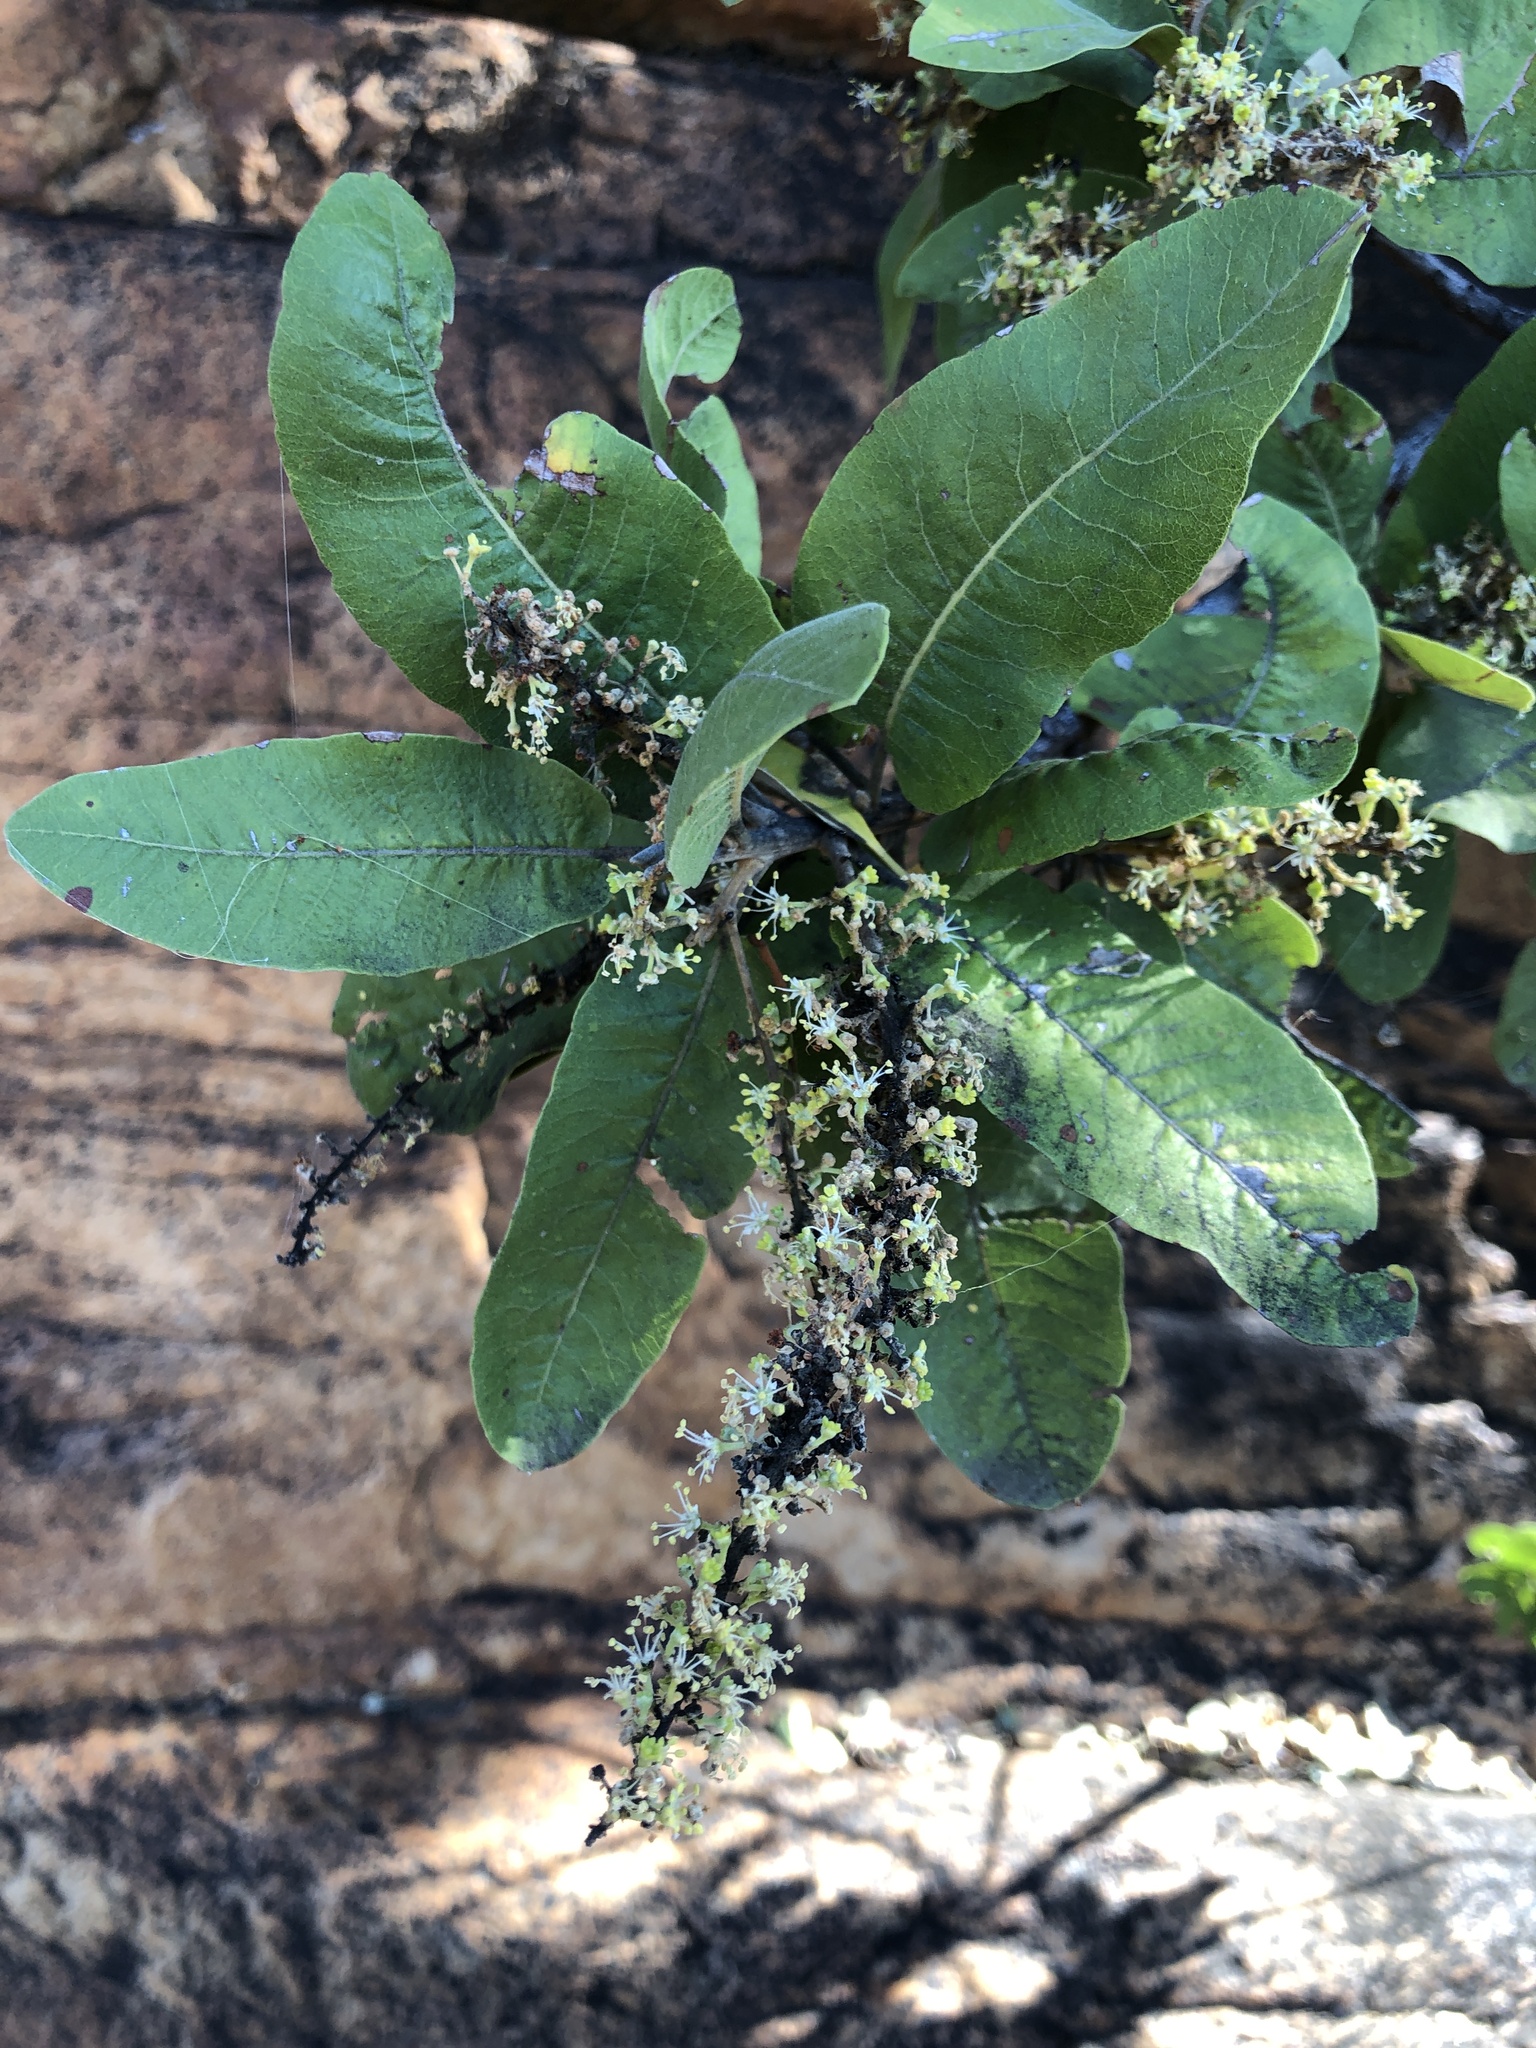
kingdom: Plantae
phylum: Tracheophyta
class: Magnoliopsida
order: Sapindales
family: Sapindaceae
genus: Pappea
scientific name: Pappea capensis
